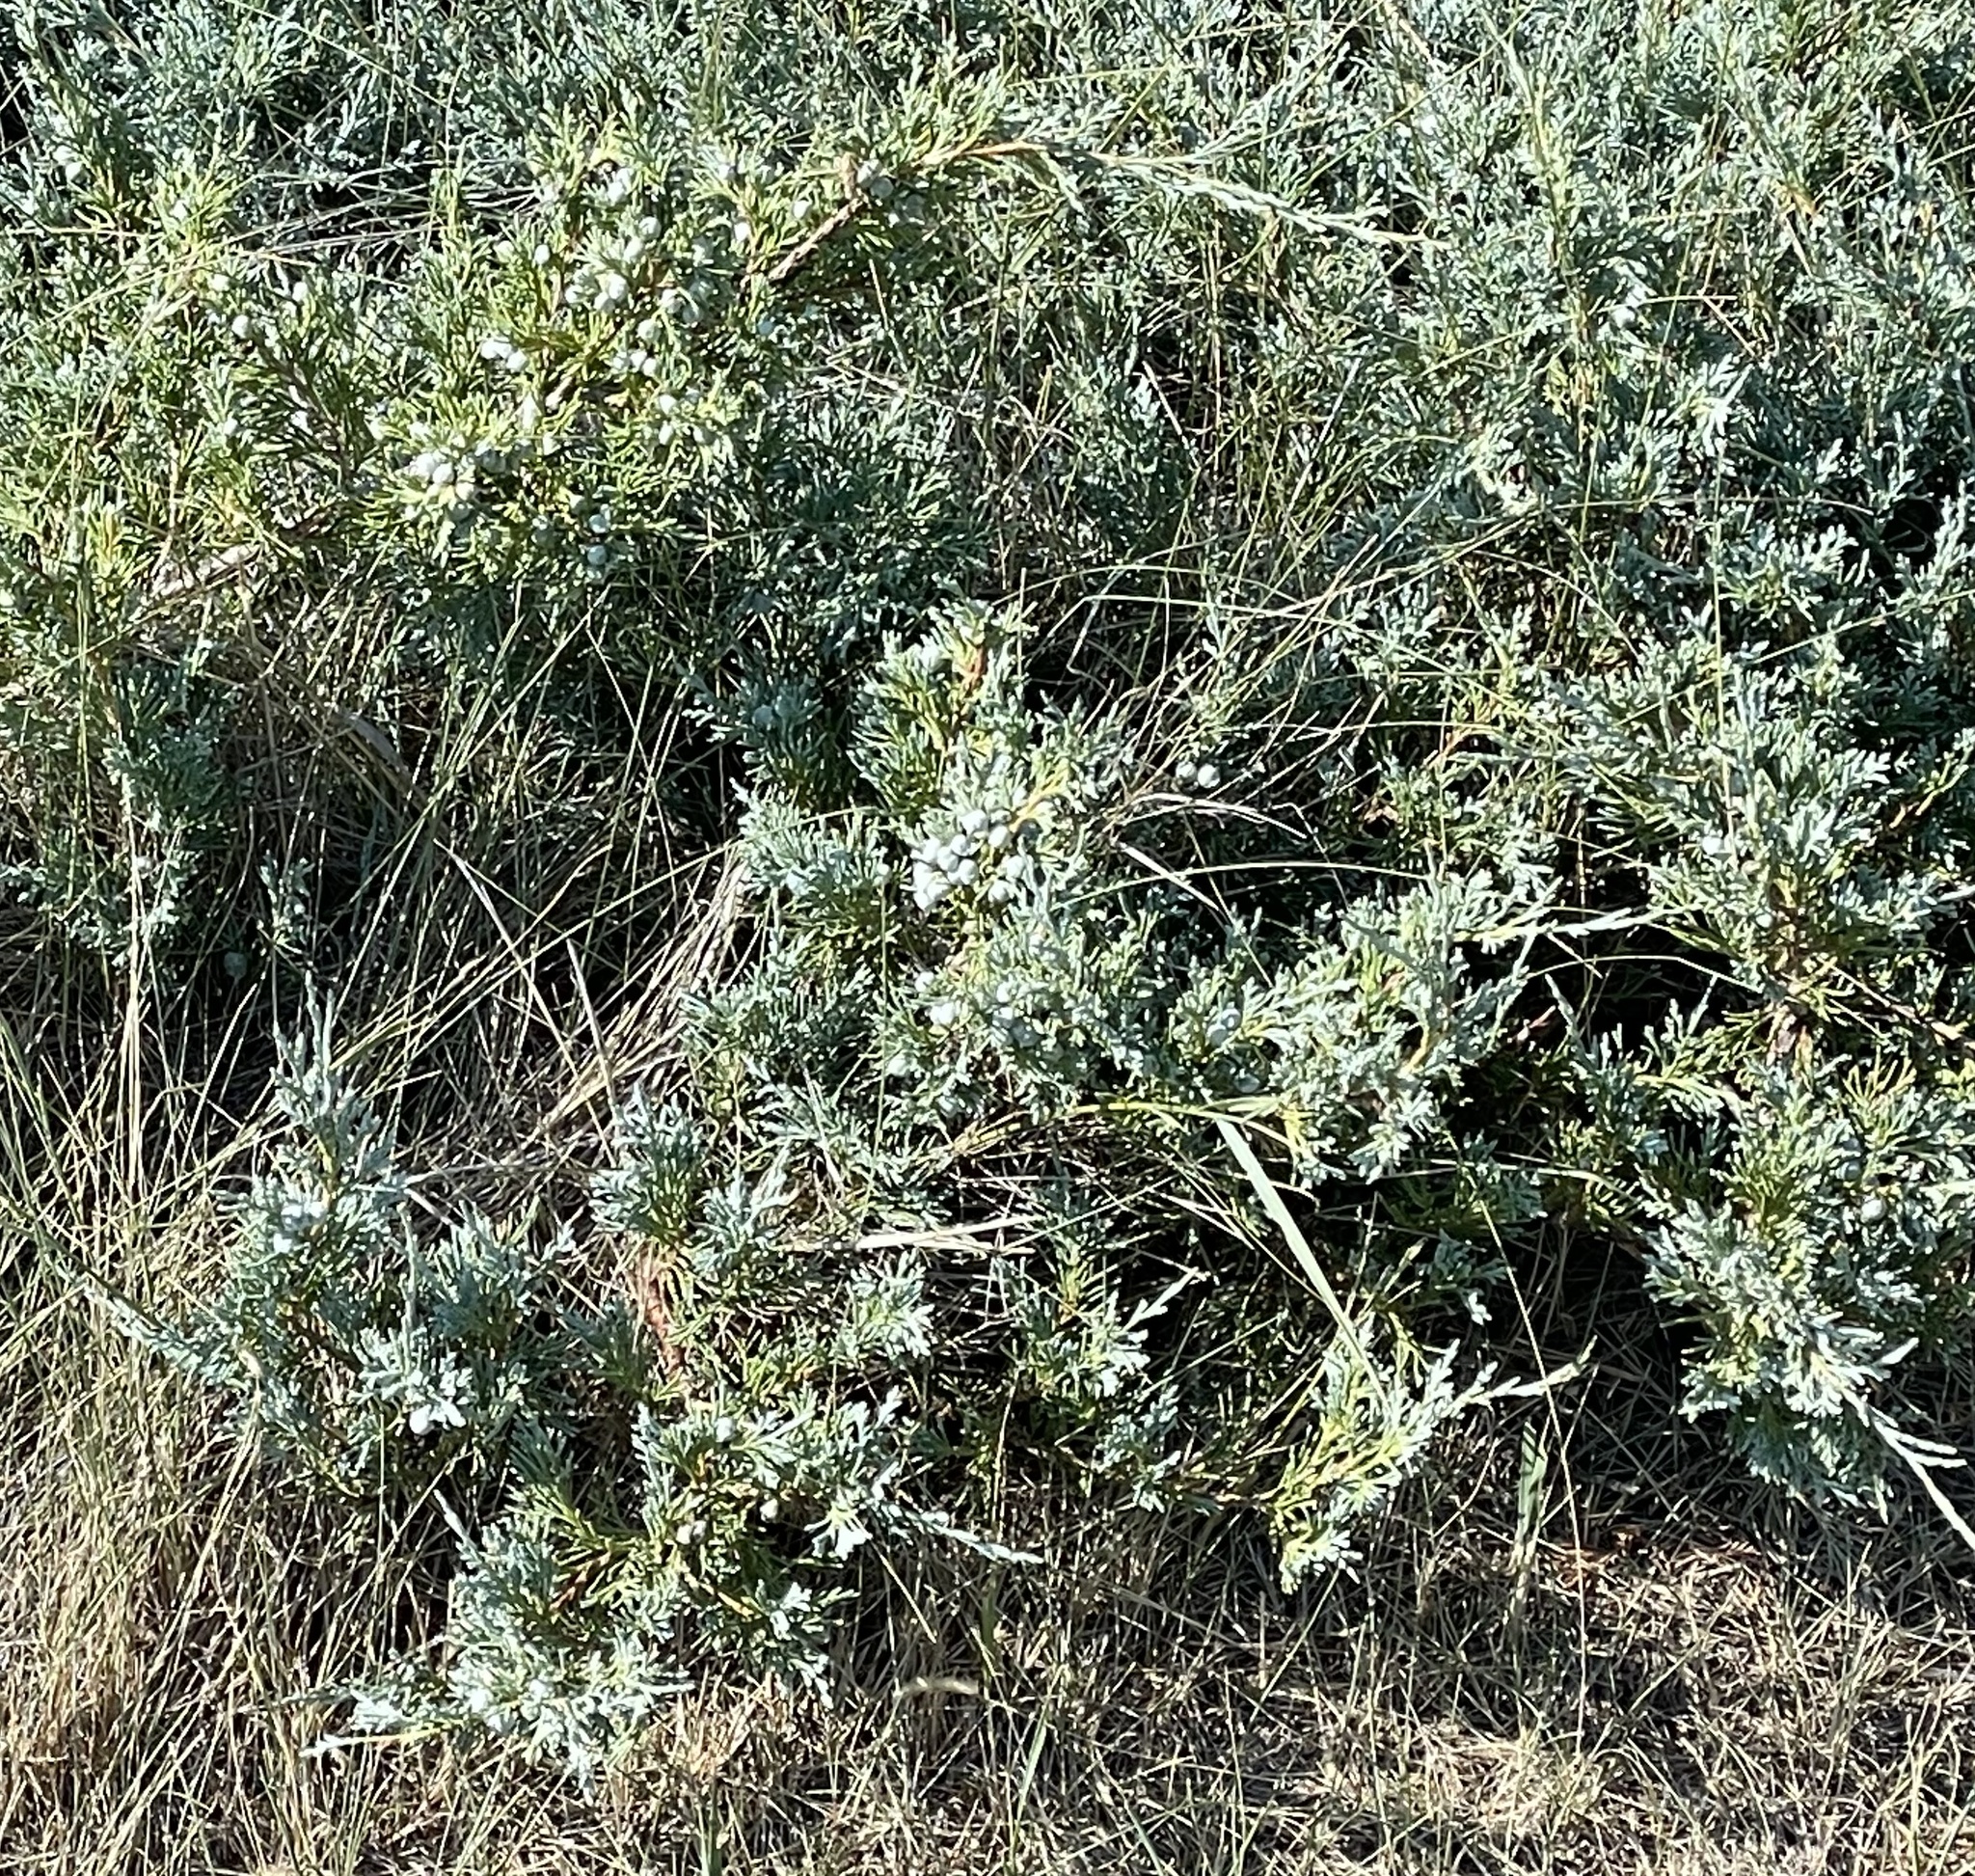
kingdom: Plantae
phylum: Tracheophyta
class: Pinopsida
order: Pinales
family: Cupressaceae
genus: Juniperus
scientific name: Juniperus horizontalis
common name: Creeping juniper
